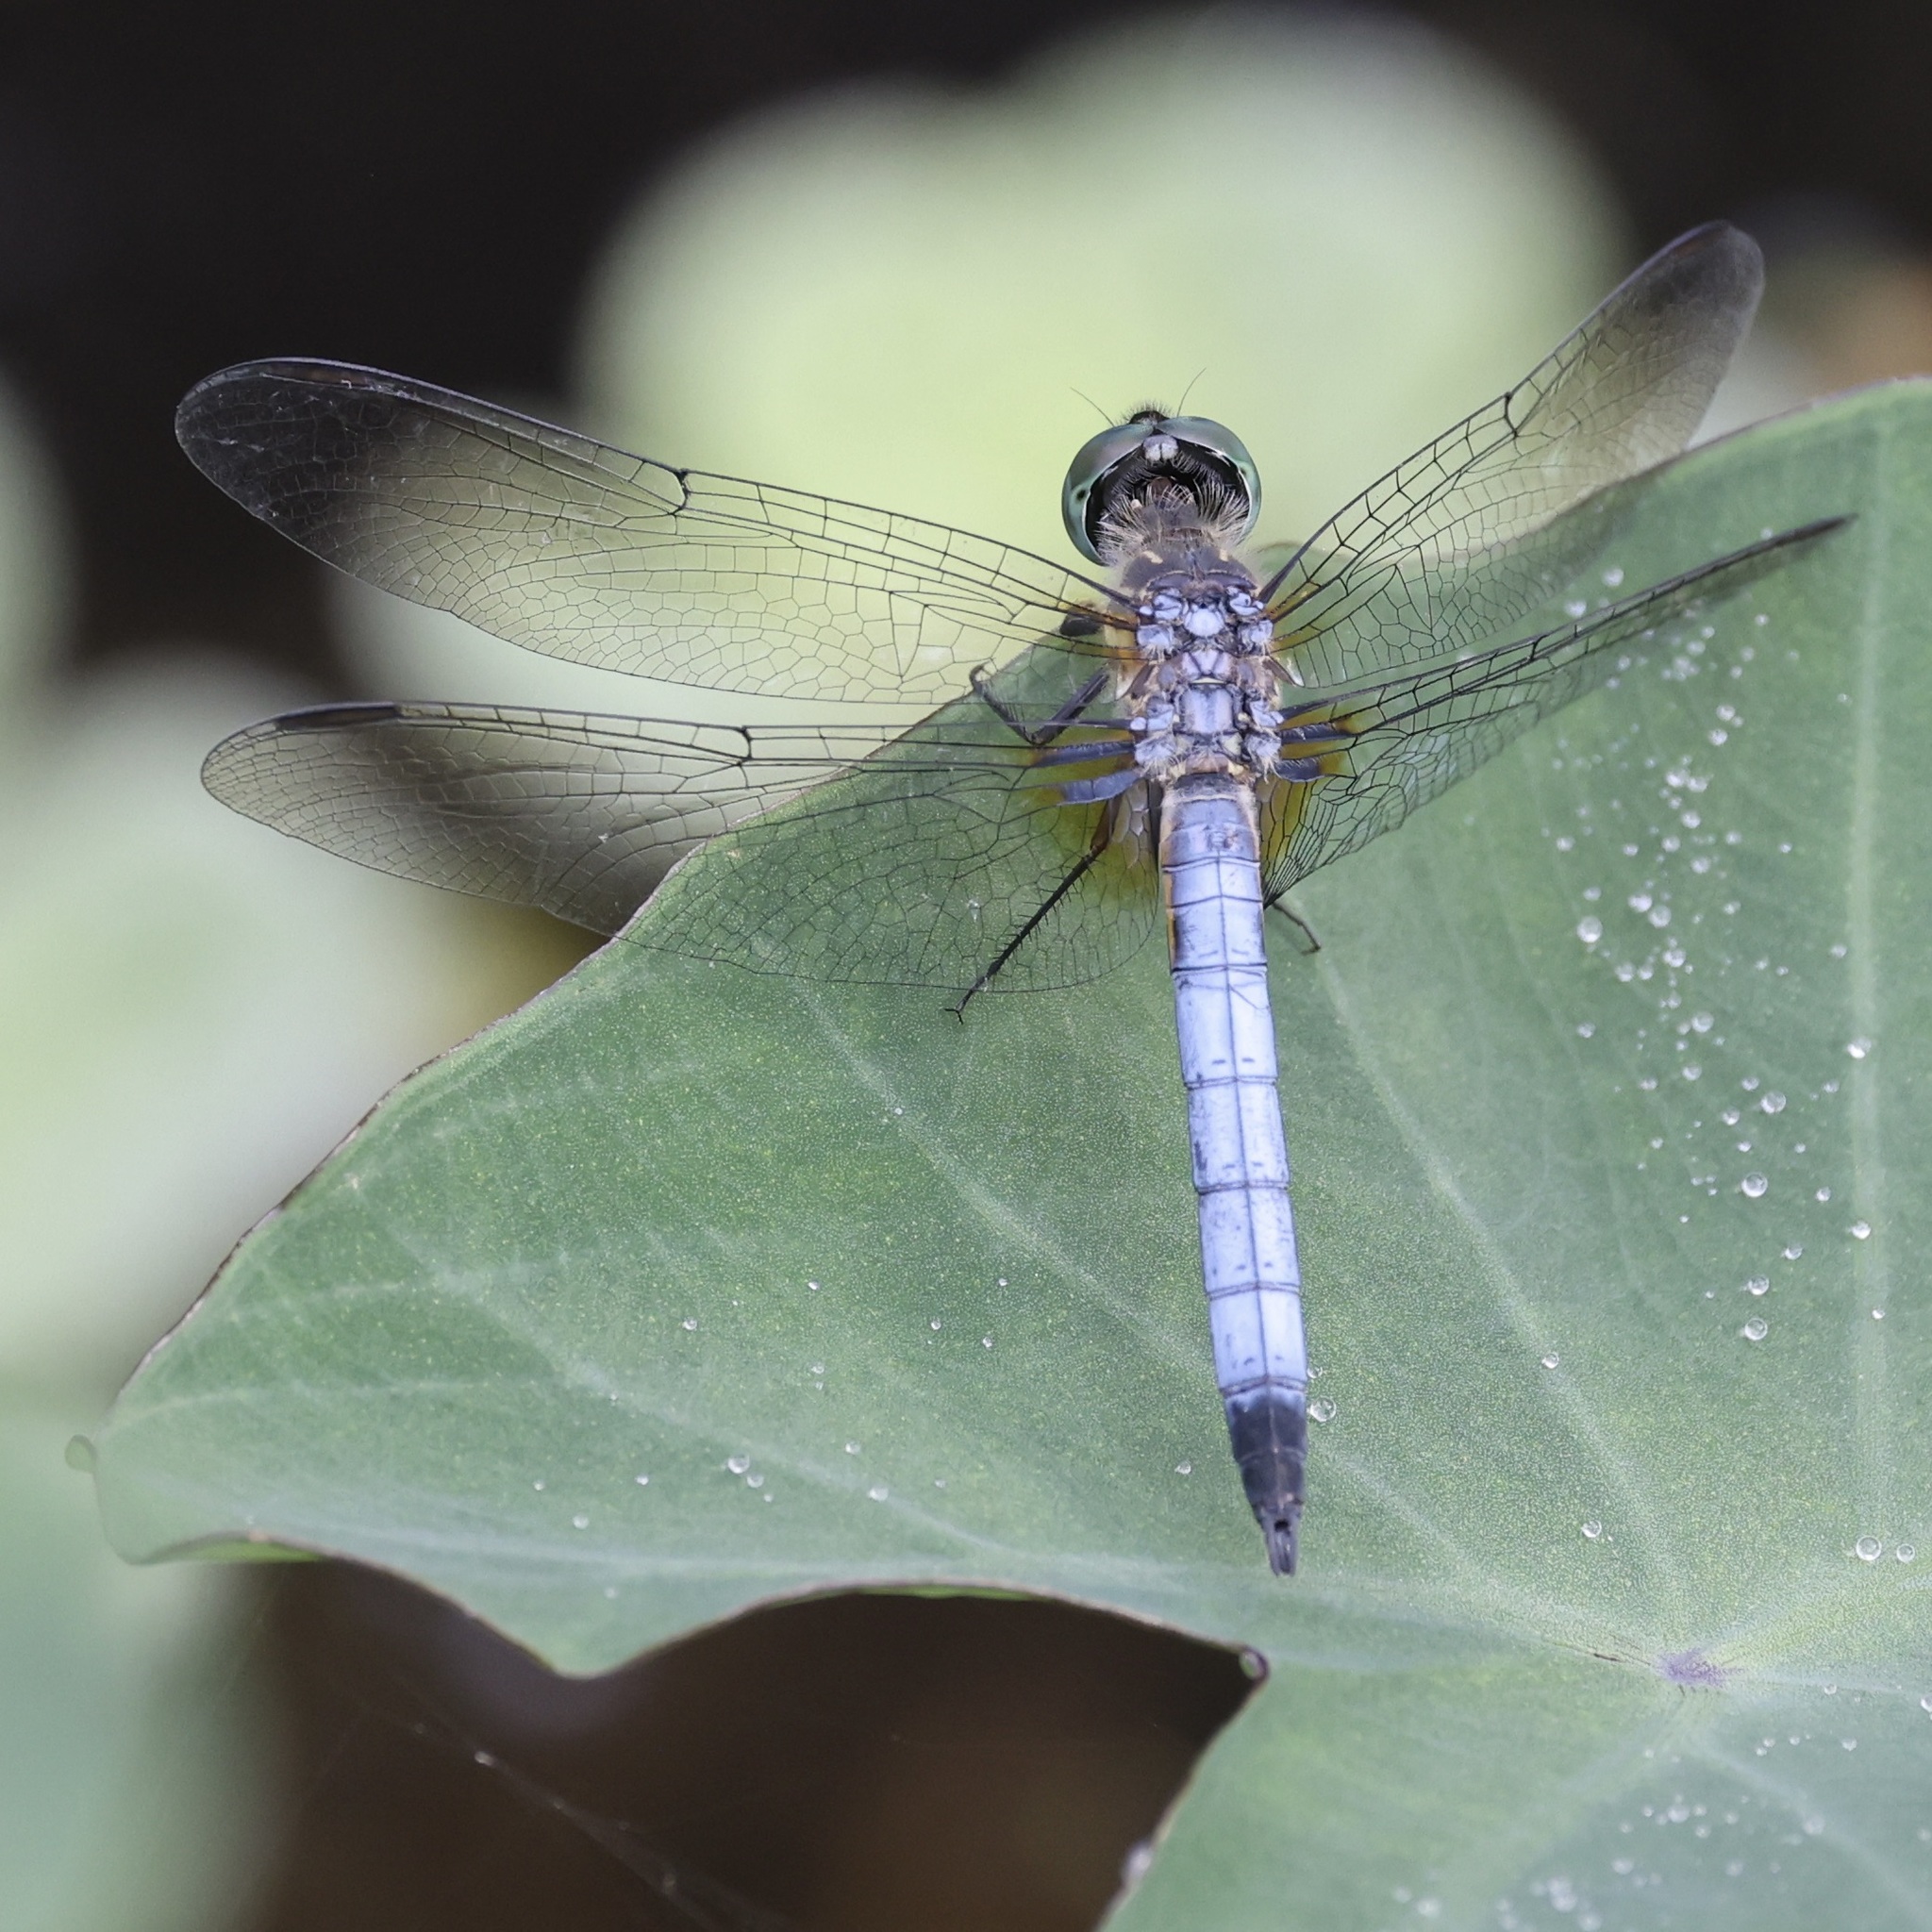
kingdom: Animalia
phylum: Arthropoda
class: Insecta
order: Odonata
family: Libellulidae
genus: Pachydiplax
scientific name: Pachydiplax longipennis
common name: Blue dasher
